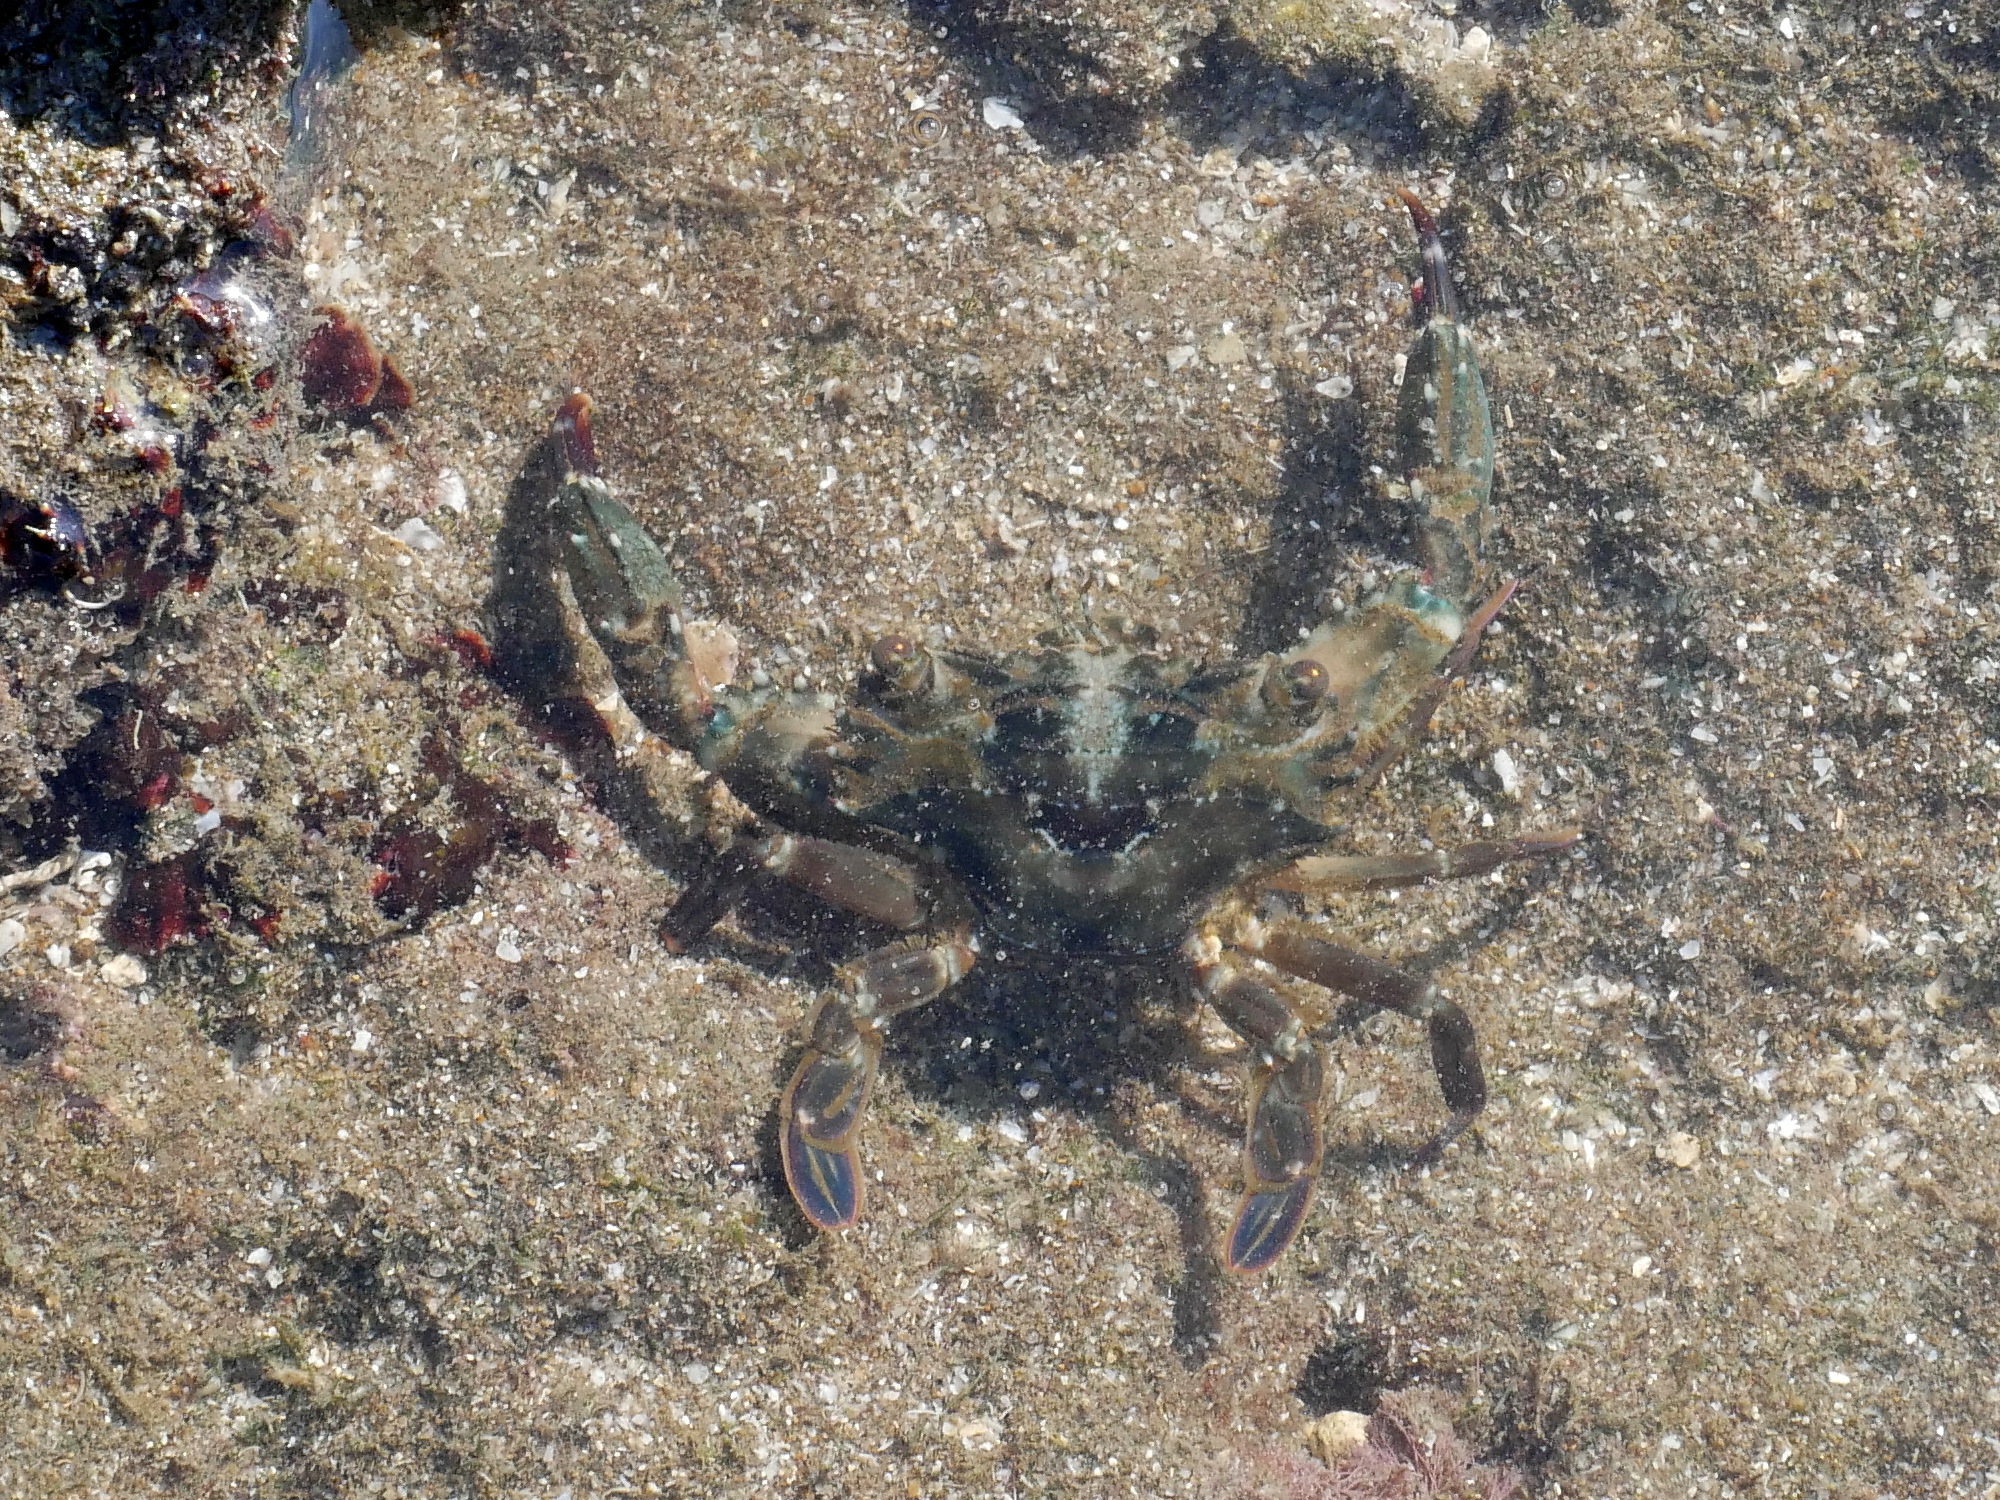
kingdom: Animalia
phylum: Arthropoda
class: Malacostraca
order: Decapoda
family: Portunidae
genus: Thalamita
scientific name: Thalamita danae
